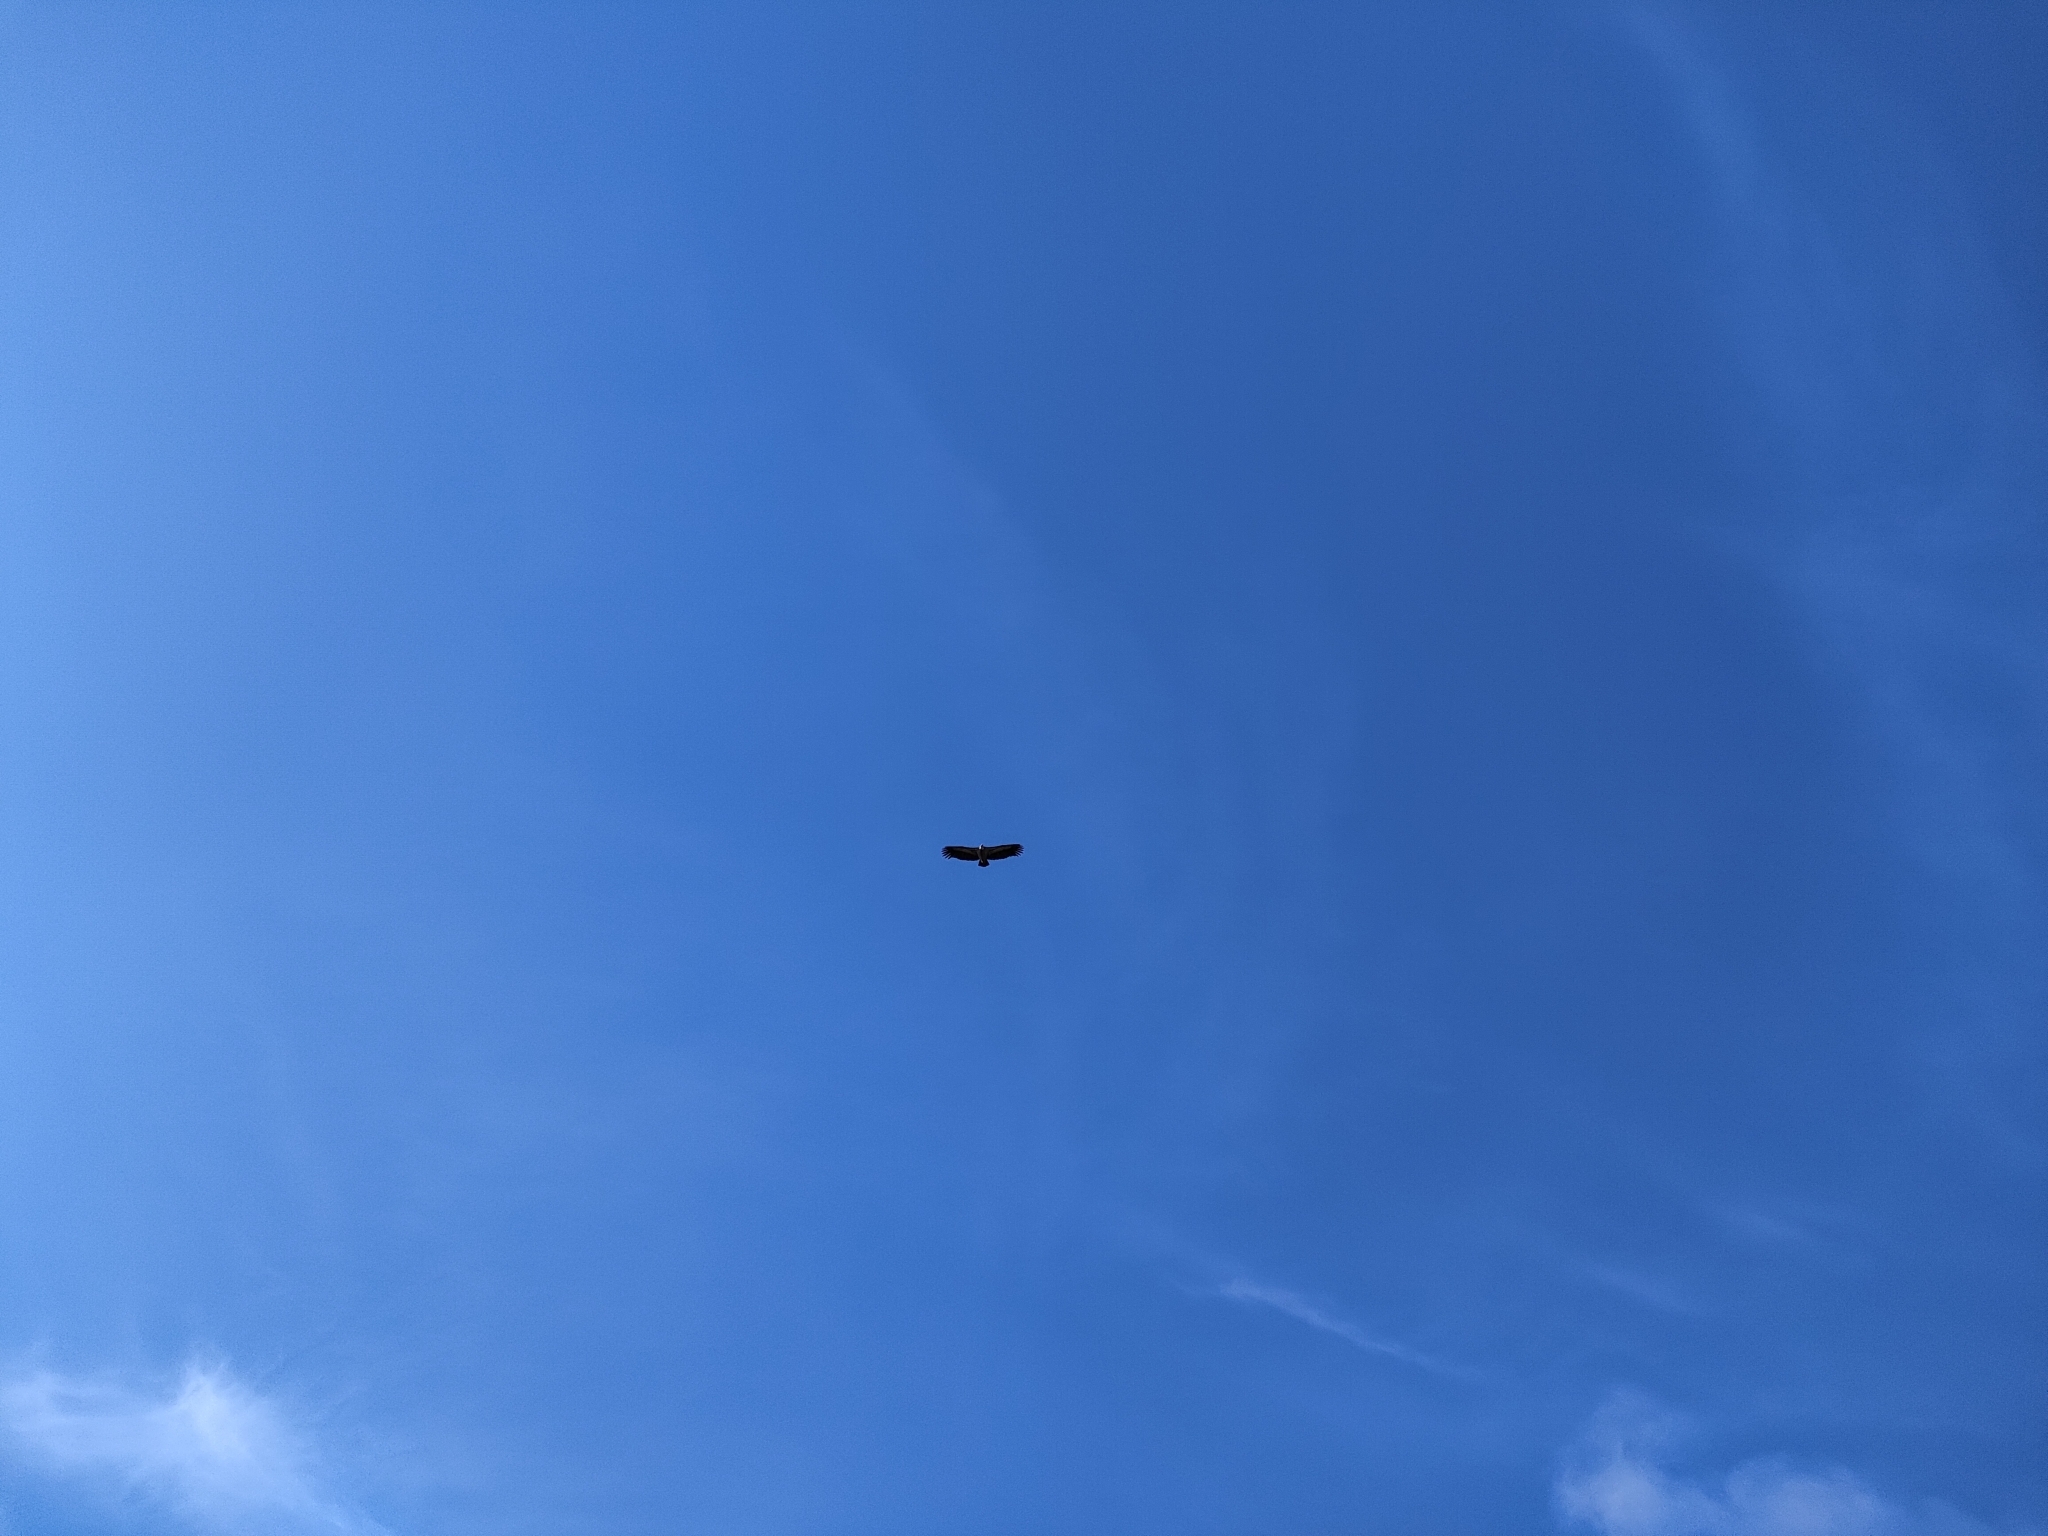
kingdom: Animalia
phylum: Chordata
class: Aves
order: Accipitriformes
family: Accipitridae
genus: Gyps
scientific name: Gyps fulvus
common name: Griffon vulture
